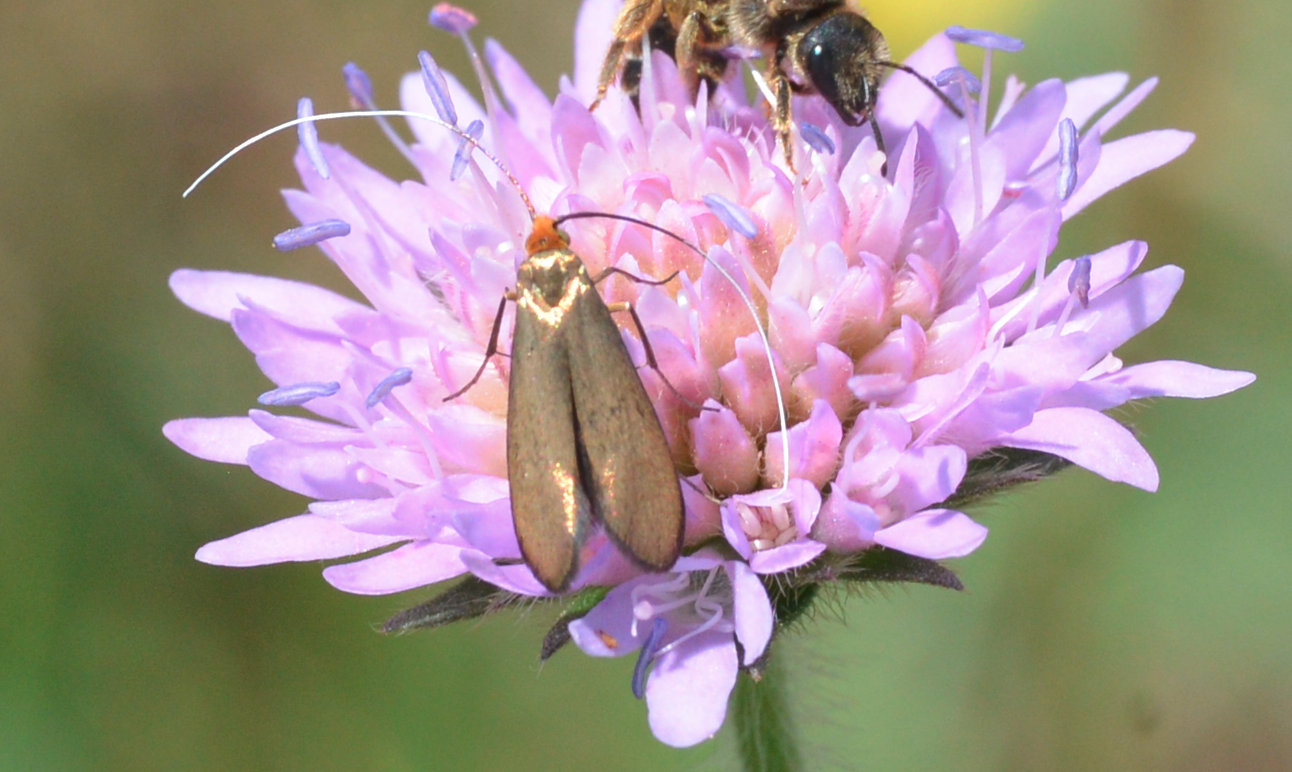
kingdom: Animalia
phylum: Arthropoda
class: Insecta
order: Lepidoptera
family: Adelidae
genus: Nemophora
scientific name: Nemophora metallica
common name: Brassy long-horn
